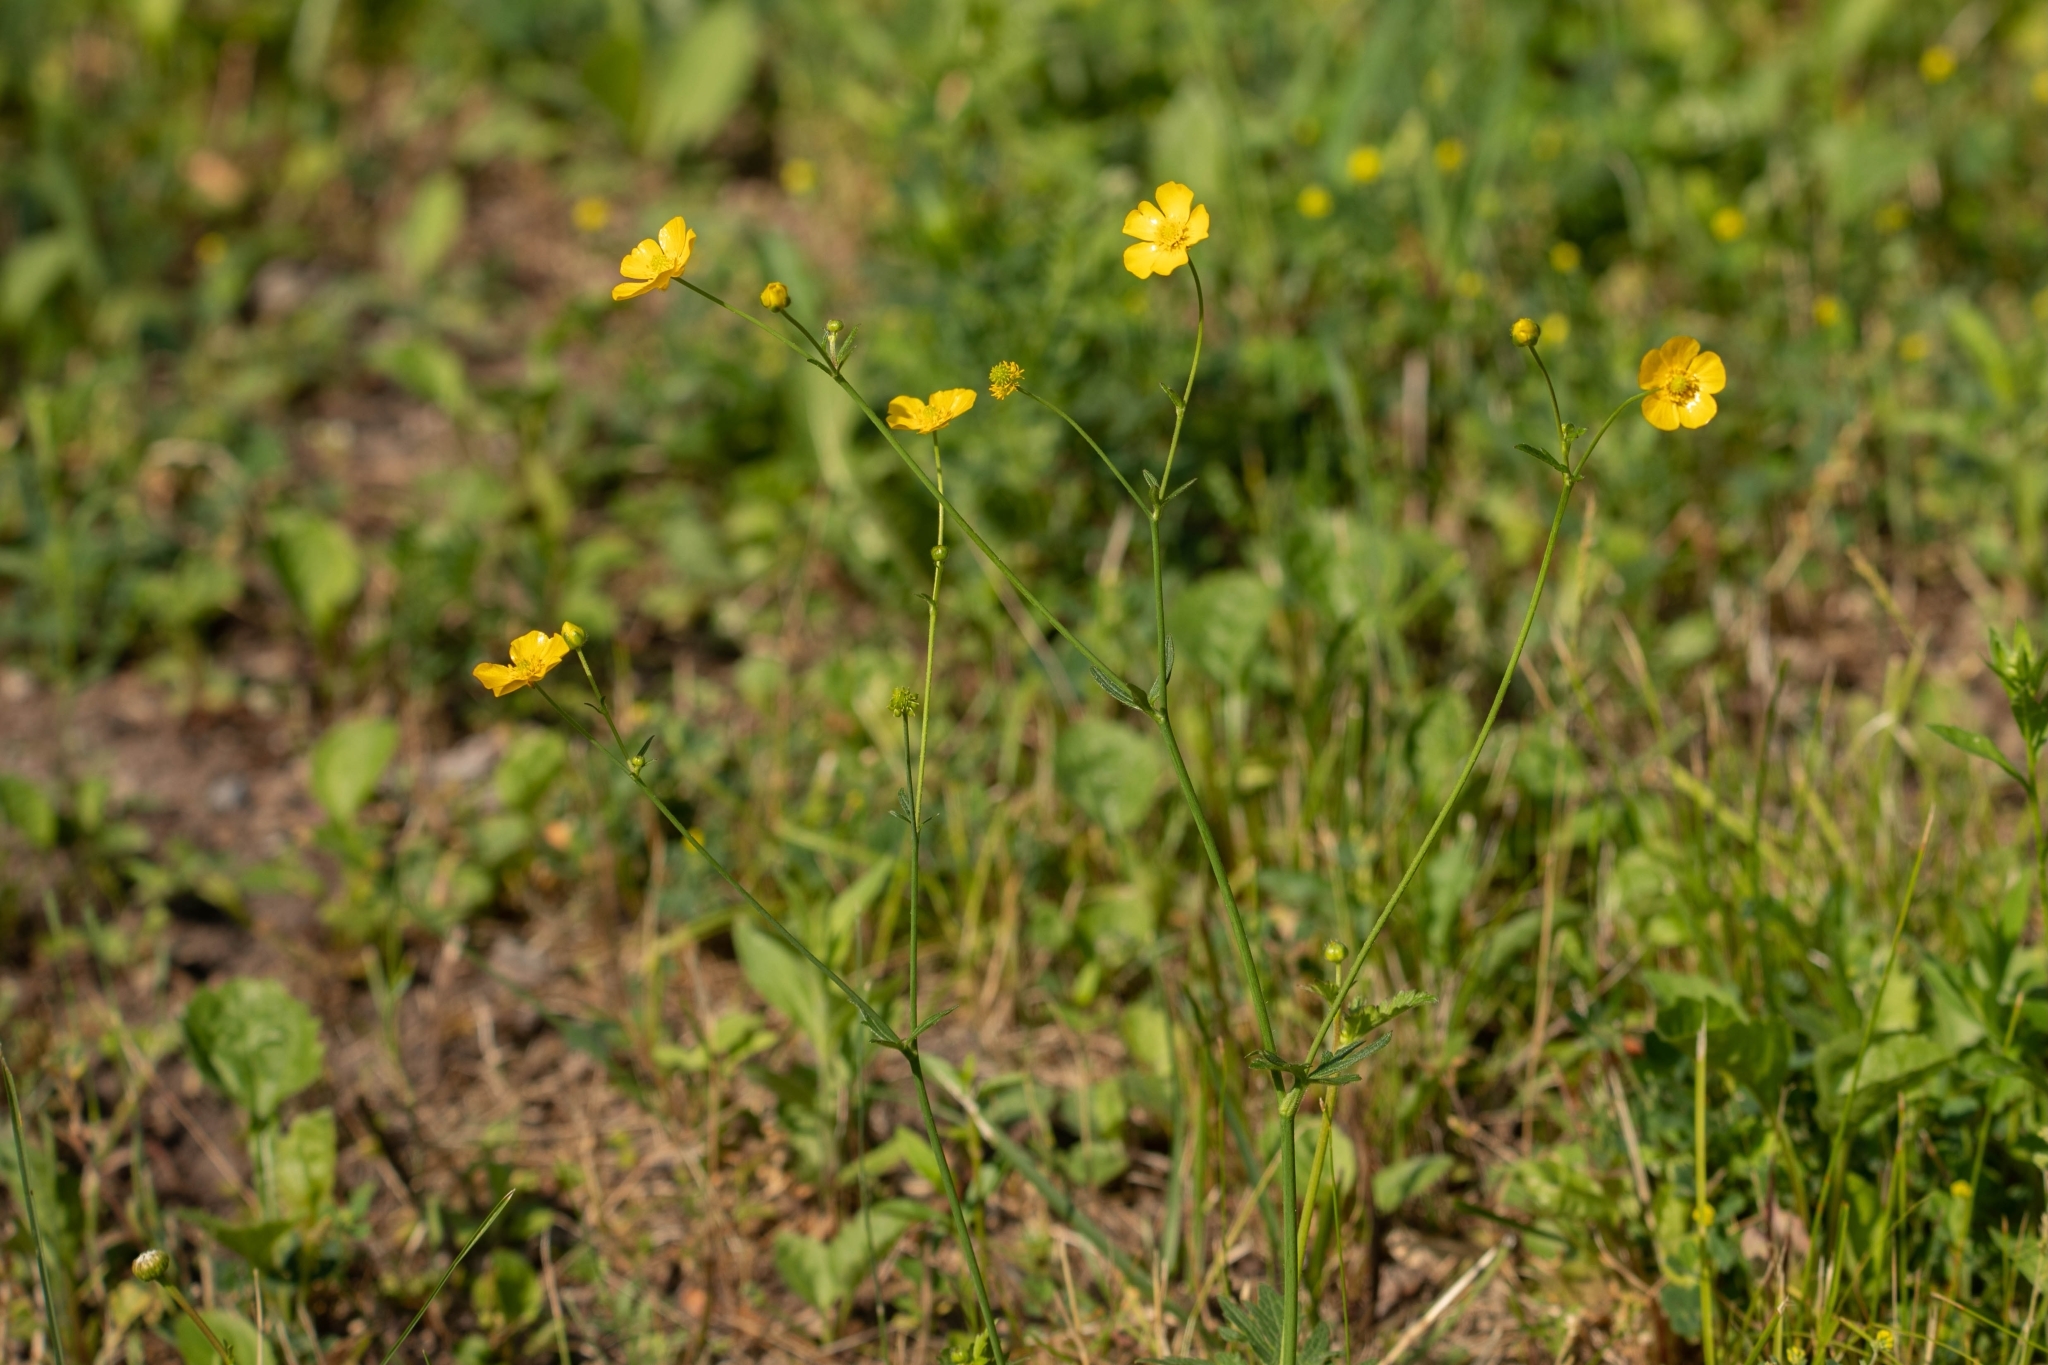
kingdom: Plantae
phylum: Tracheophyta
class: Magnoliopsida
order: Ranunculales
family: Ranunculaceae
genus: Ranunculus
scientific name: Ranunculus acris
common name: Meadow buttercup
